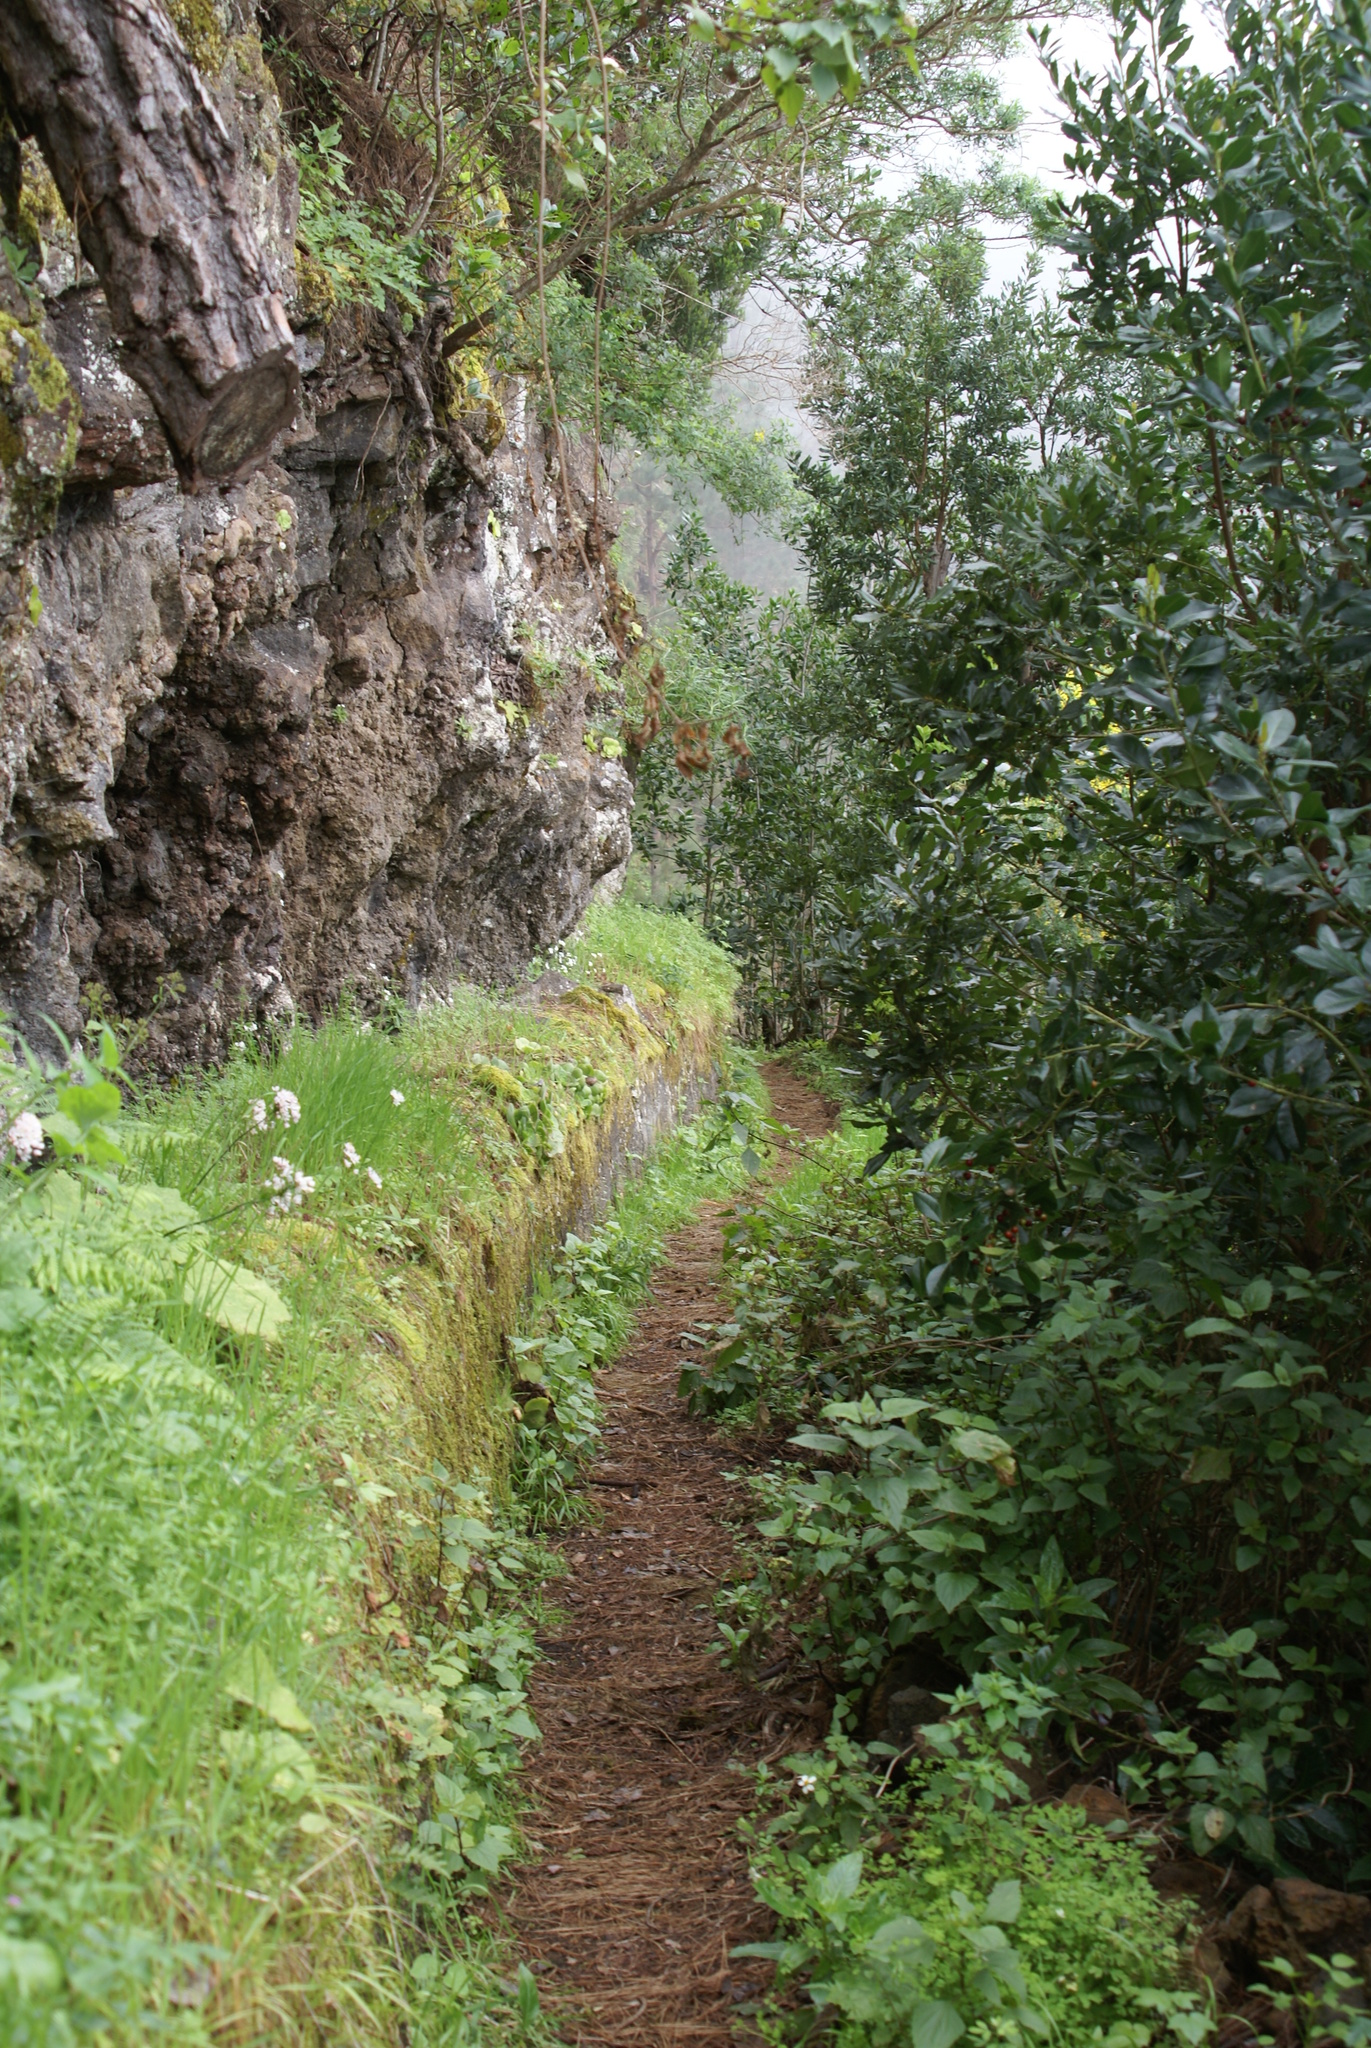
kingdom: Plantae
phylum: Tracheophyta
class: Liliopsida
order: Asparagales
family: Amaryllidaceae
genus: Allium
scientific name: Allium canariense
